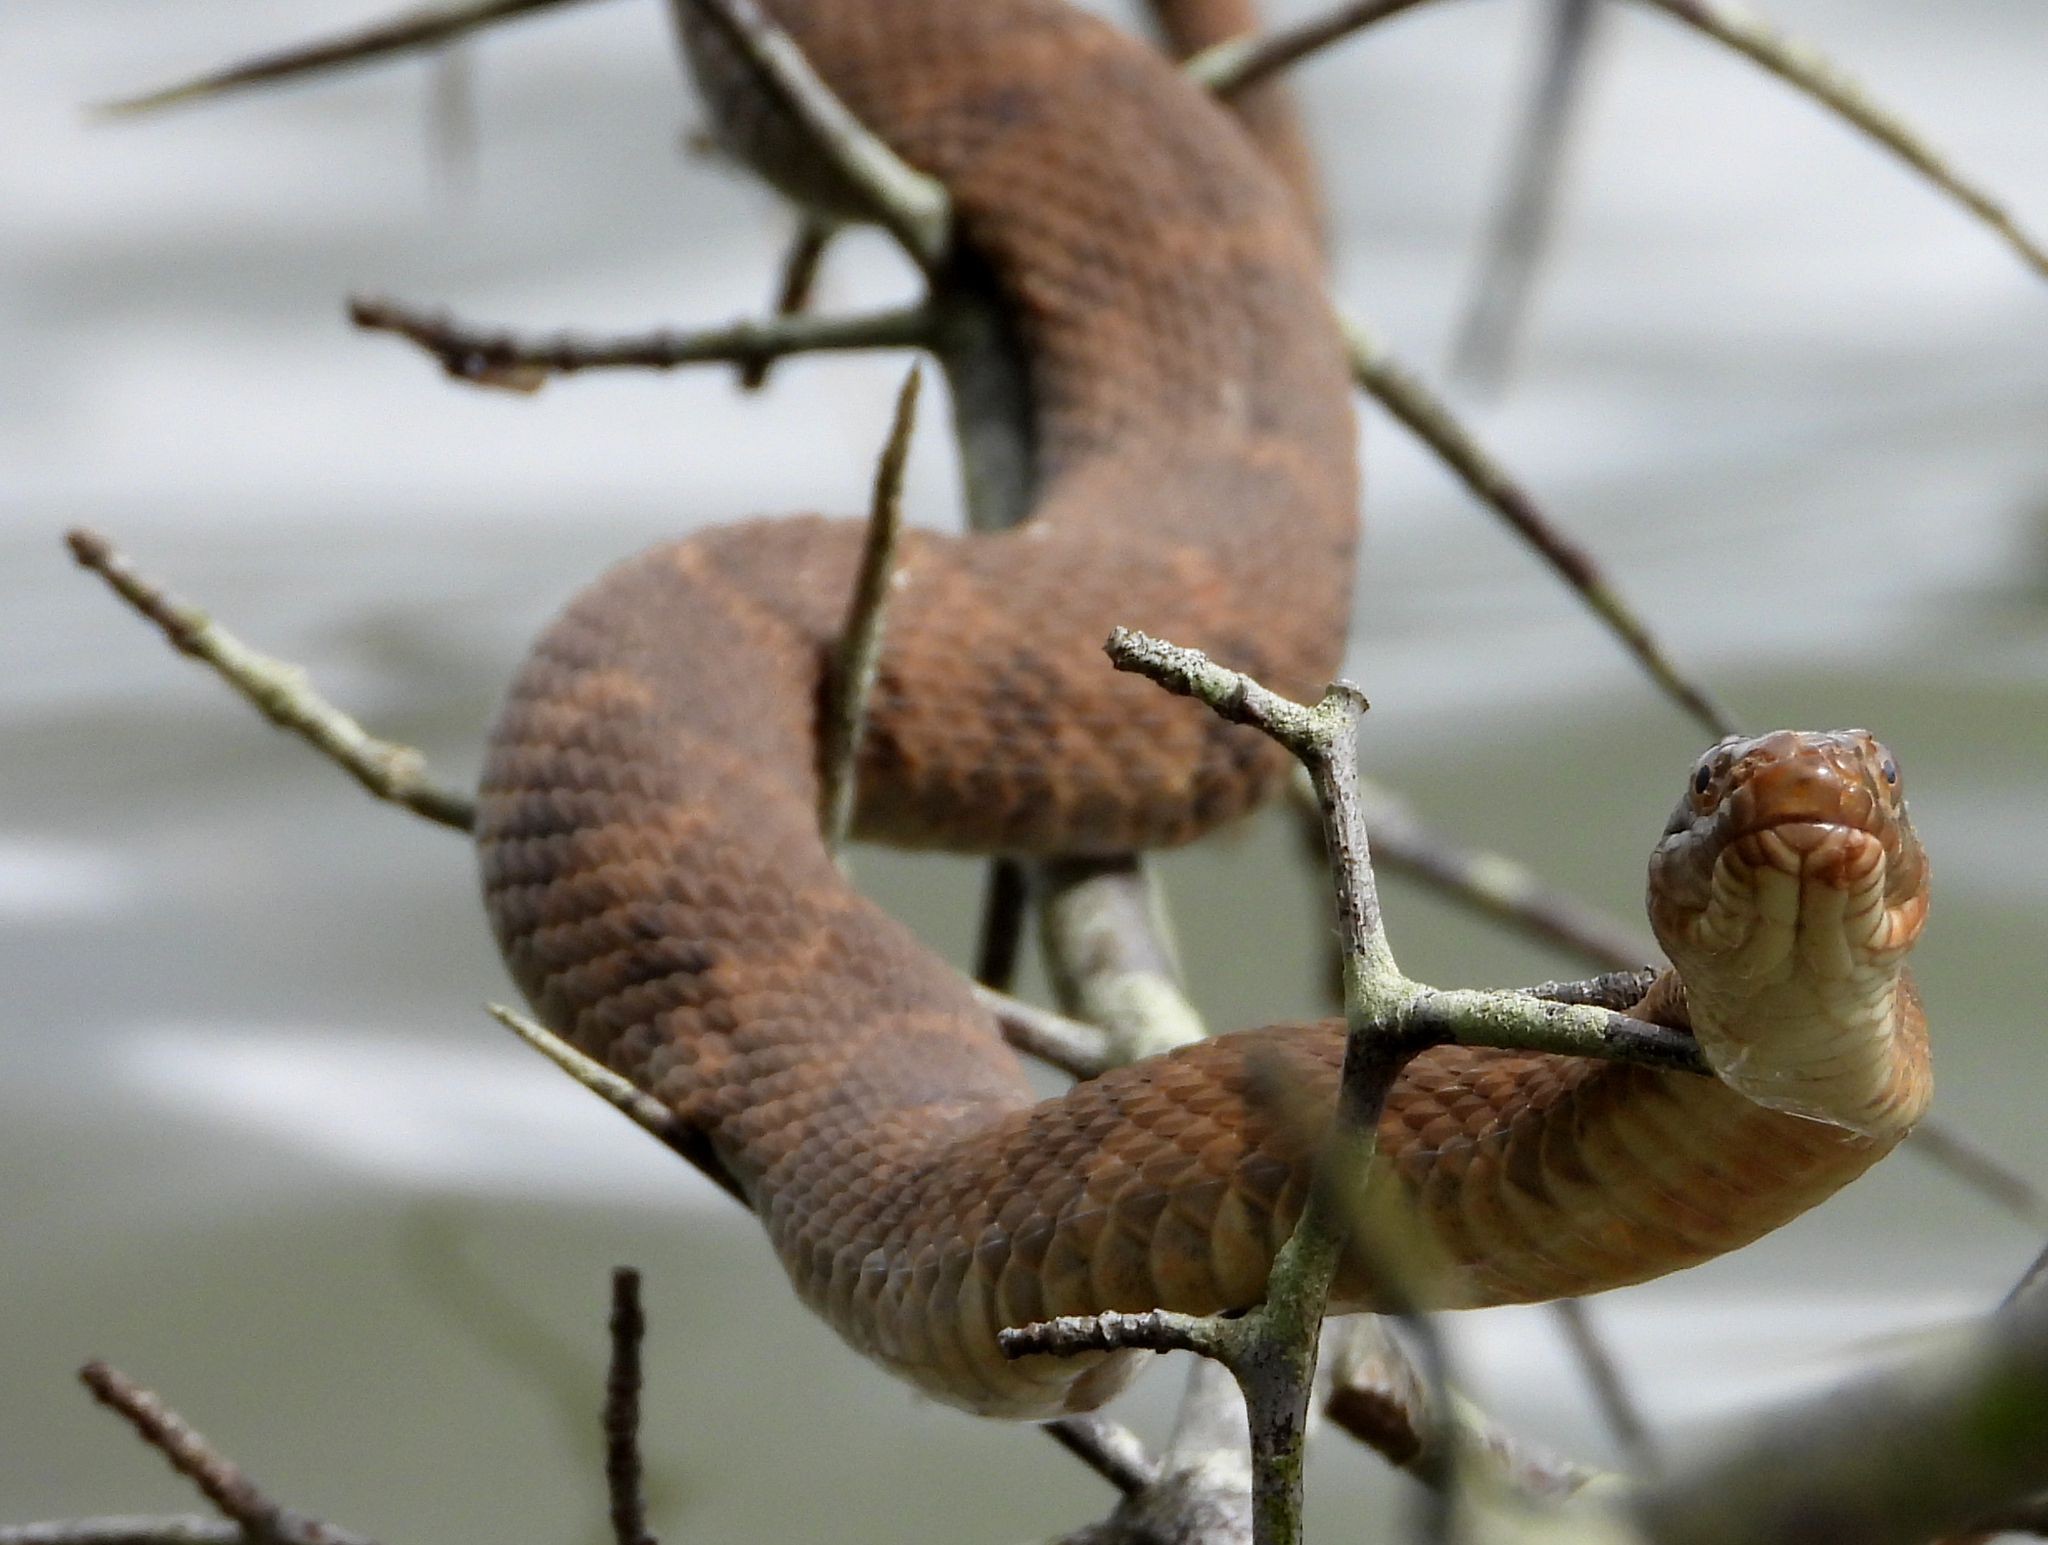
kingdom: Animalia
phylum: Chordata
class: Squamata
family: Colubridae
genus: Nerodia
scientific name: Nerodia sipedon
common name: Northern water snake
